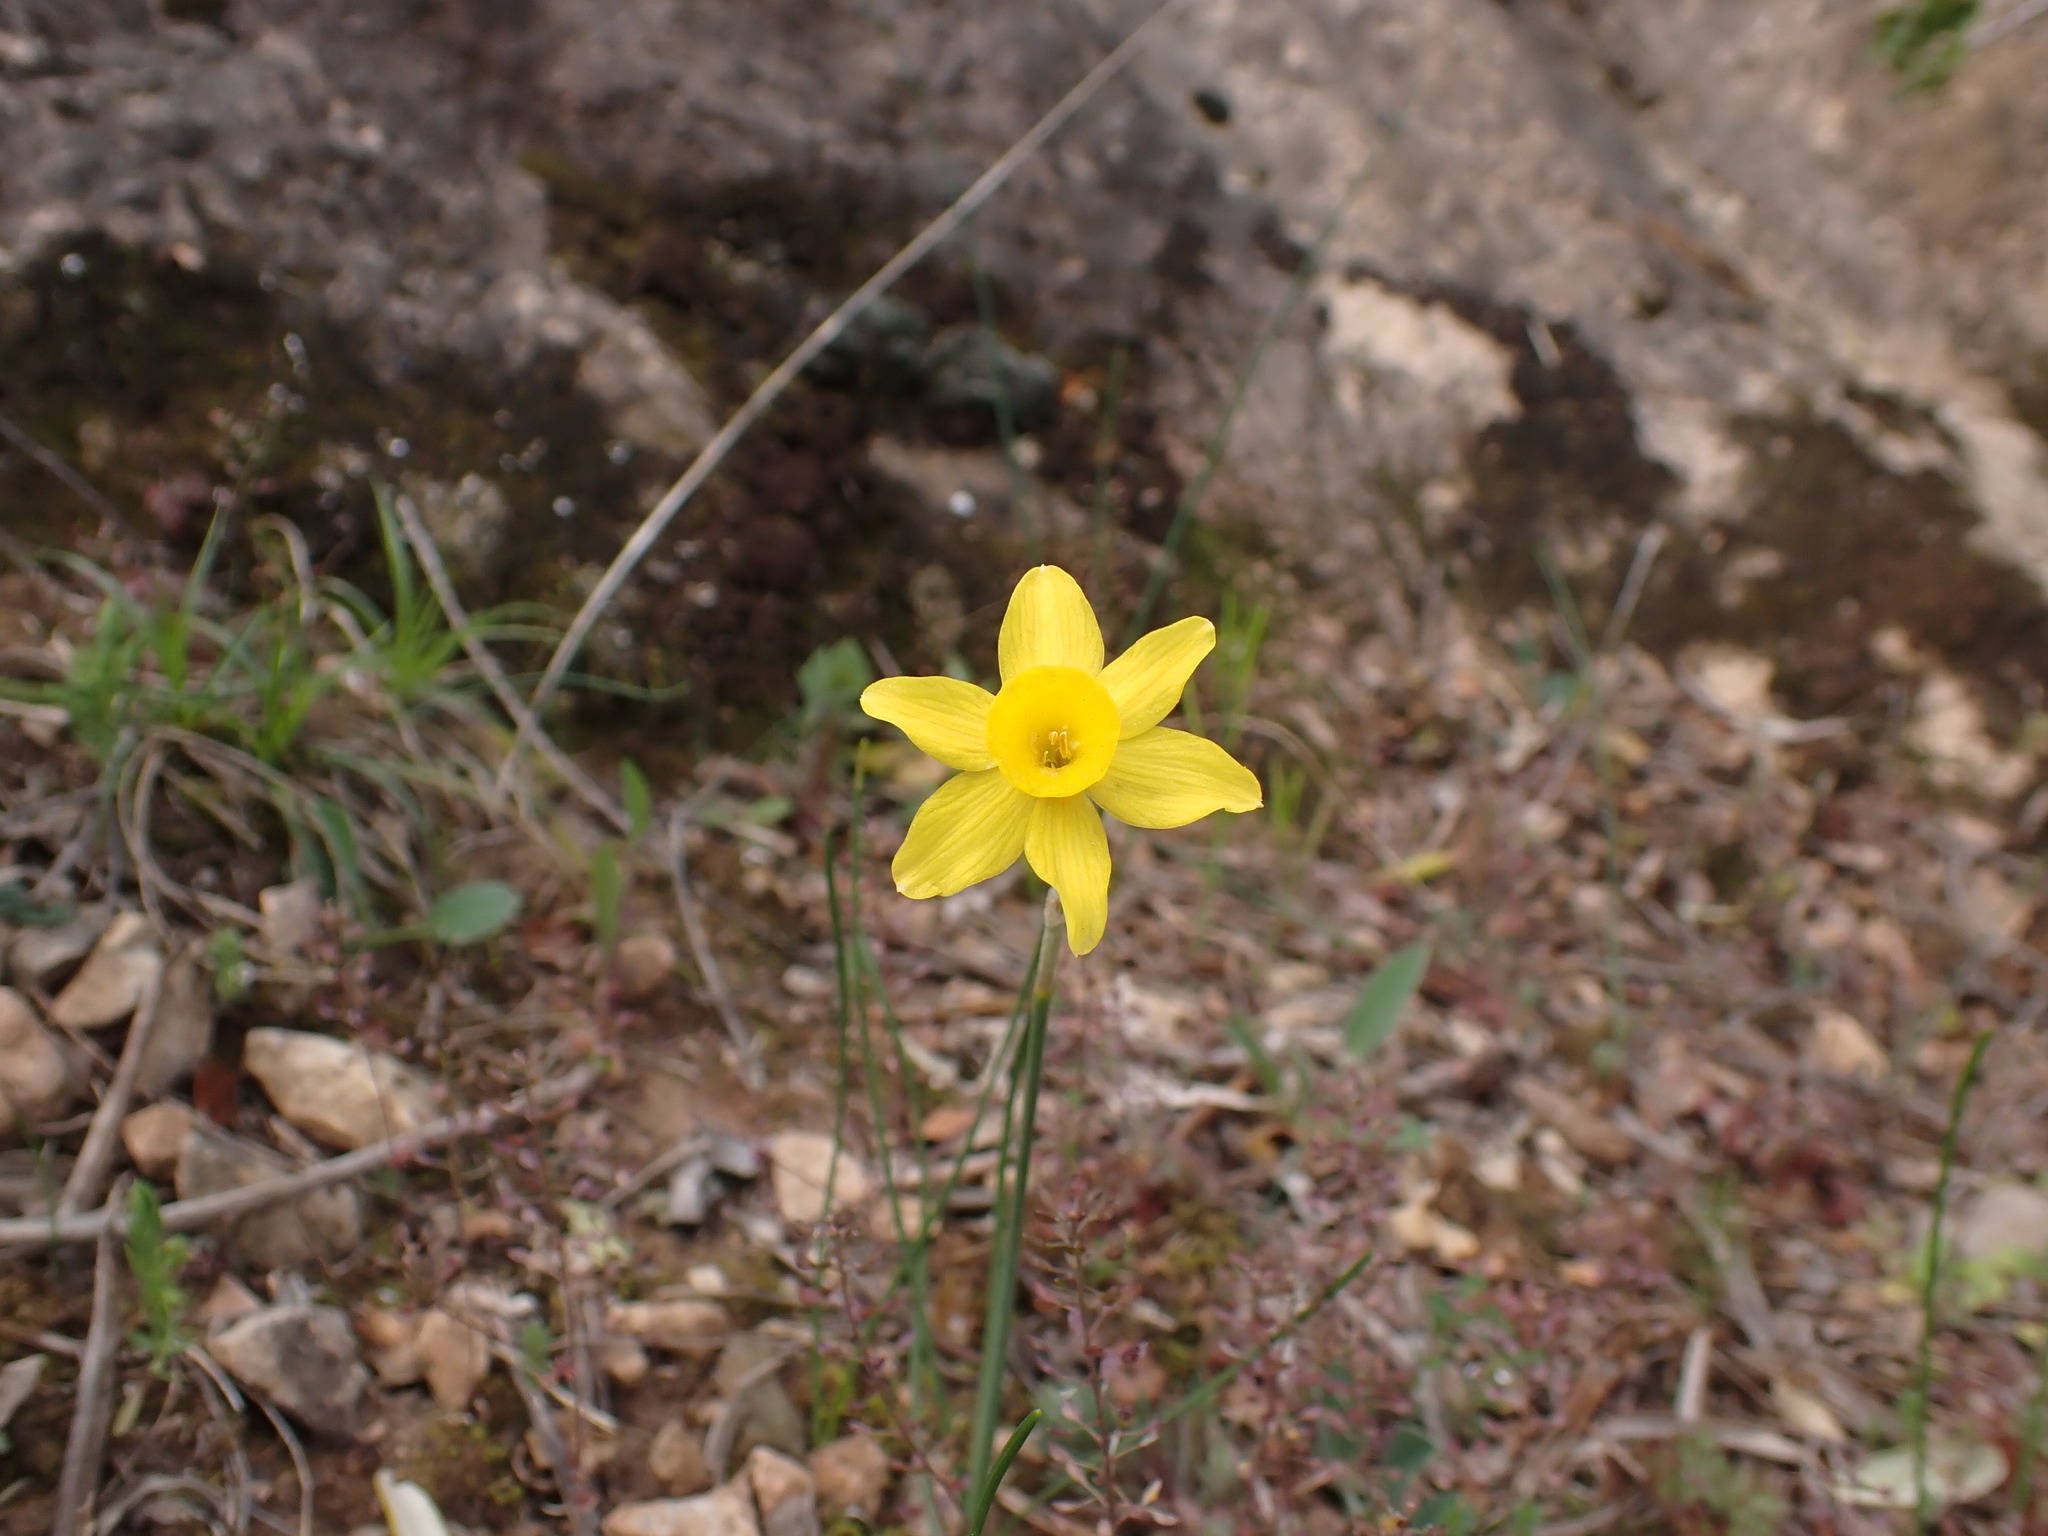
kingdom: Plantae
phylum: Tracheophyta
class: Liliopsida
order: Asparagales
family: Amaryllidaceae
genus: Narcissus
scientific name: Narcissus assoanus
